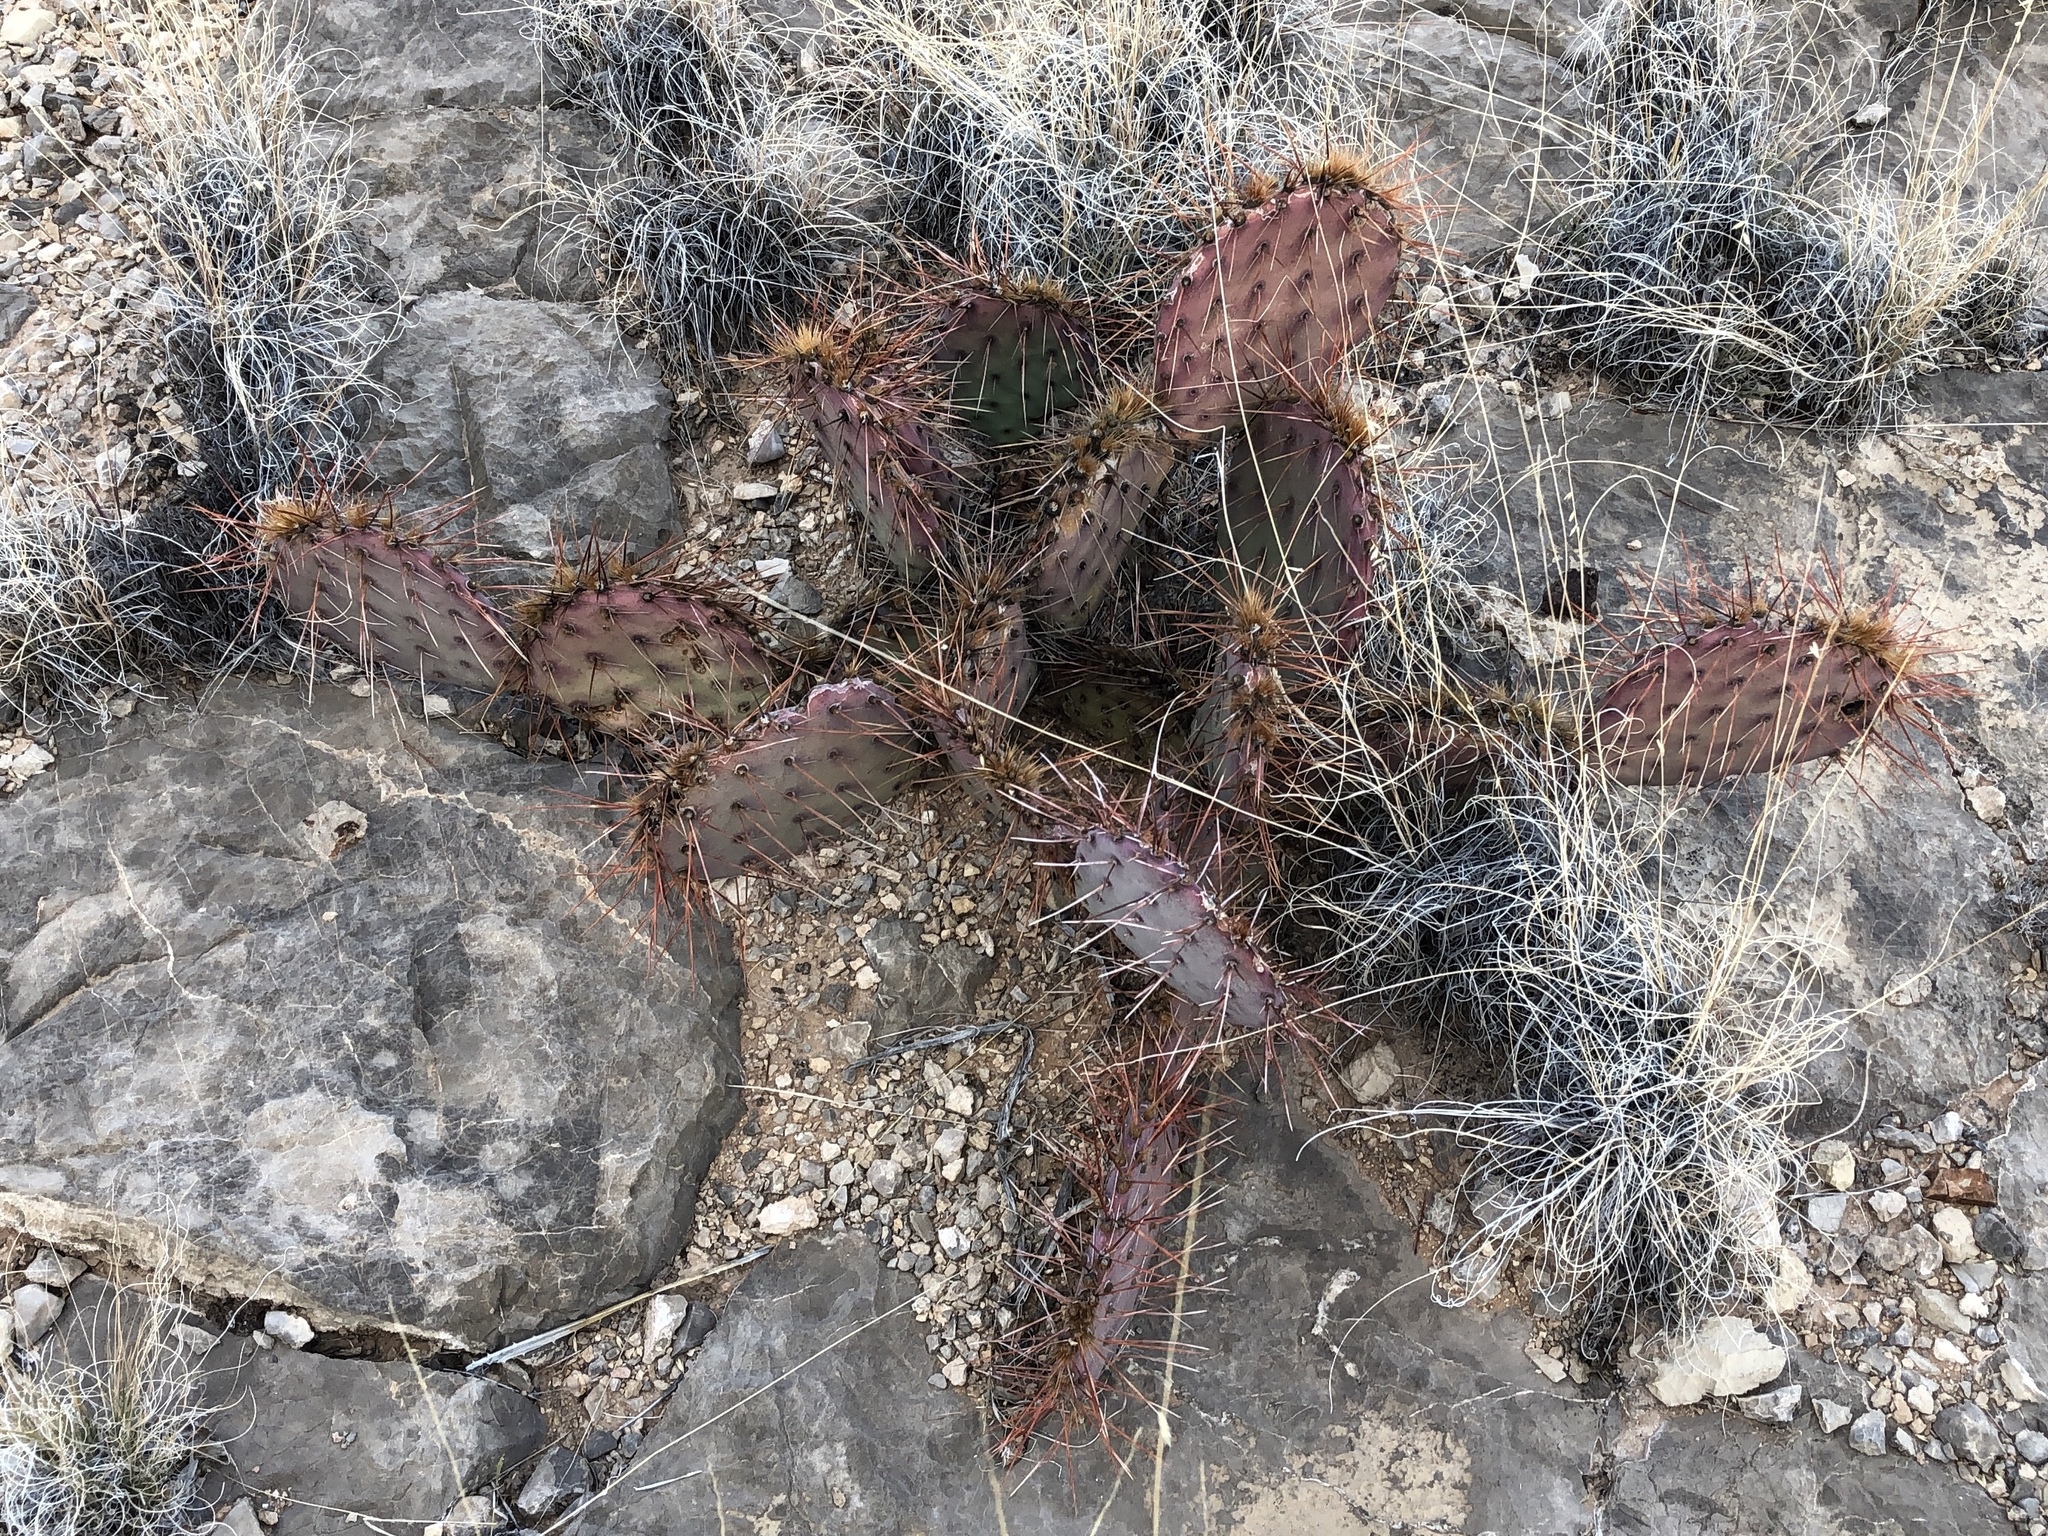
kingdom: Plantae
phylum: Tracheophyta
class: Magnoliopsida
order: Caryophyllales
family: Cactaceae
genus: Opuntia
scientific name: Opuntia phaeacantha
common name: New mexico prickly-pear
